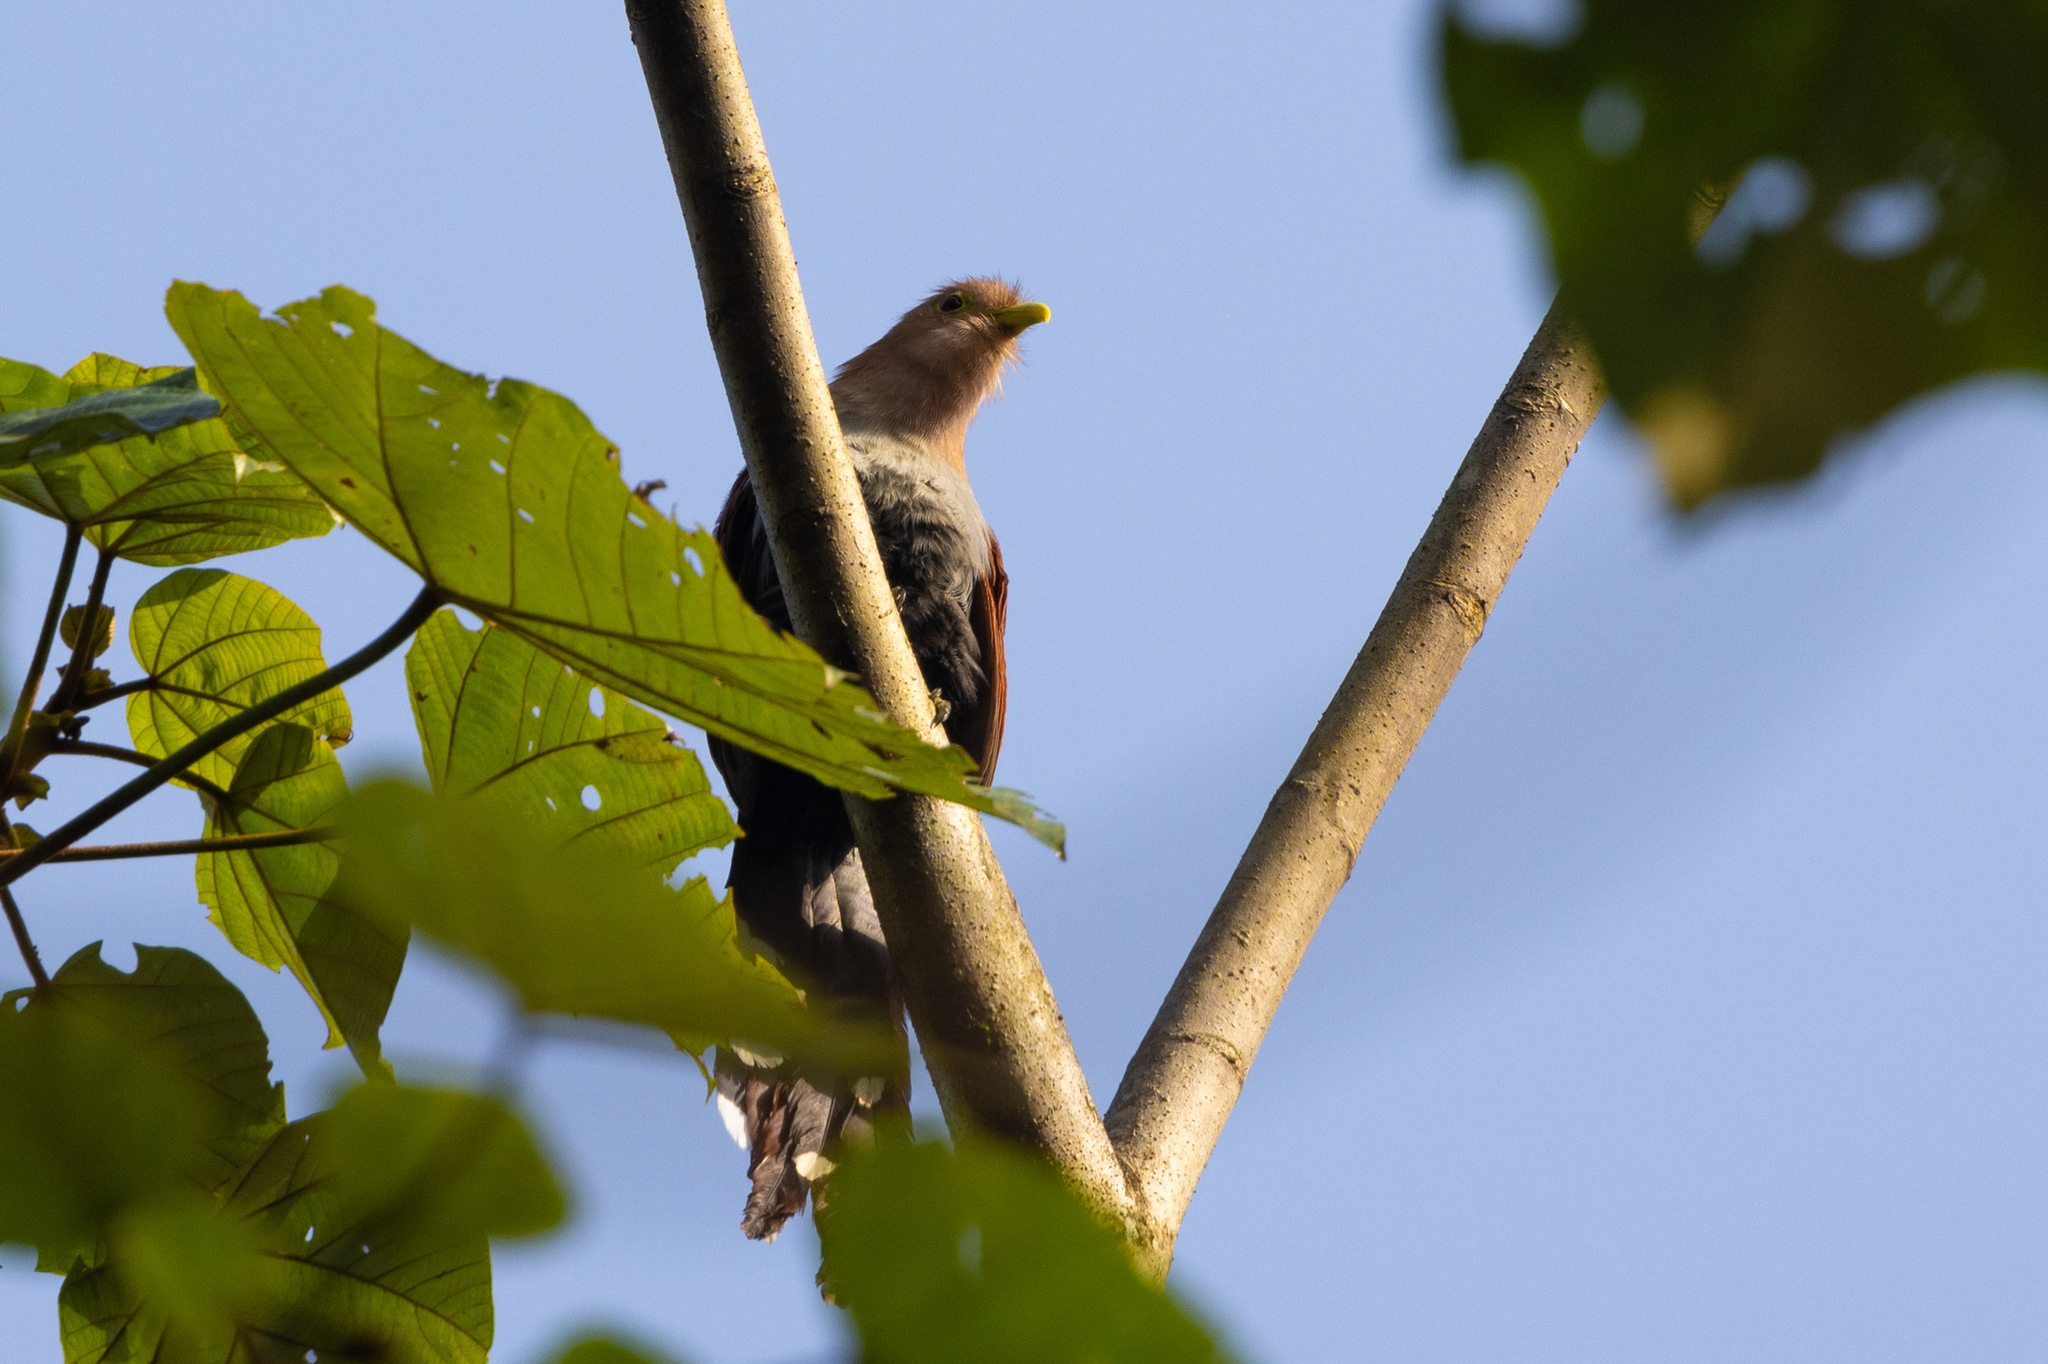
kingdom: Animalia
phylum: Chordata
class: Aves
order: Cuculiformes
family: Cuculidae
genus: Piaya
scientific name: Piaya cayana
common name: Squirrel cuckoo
